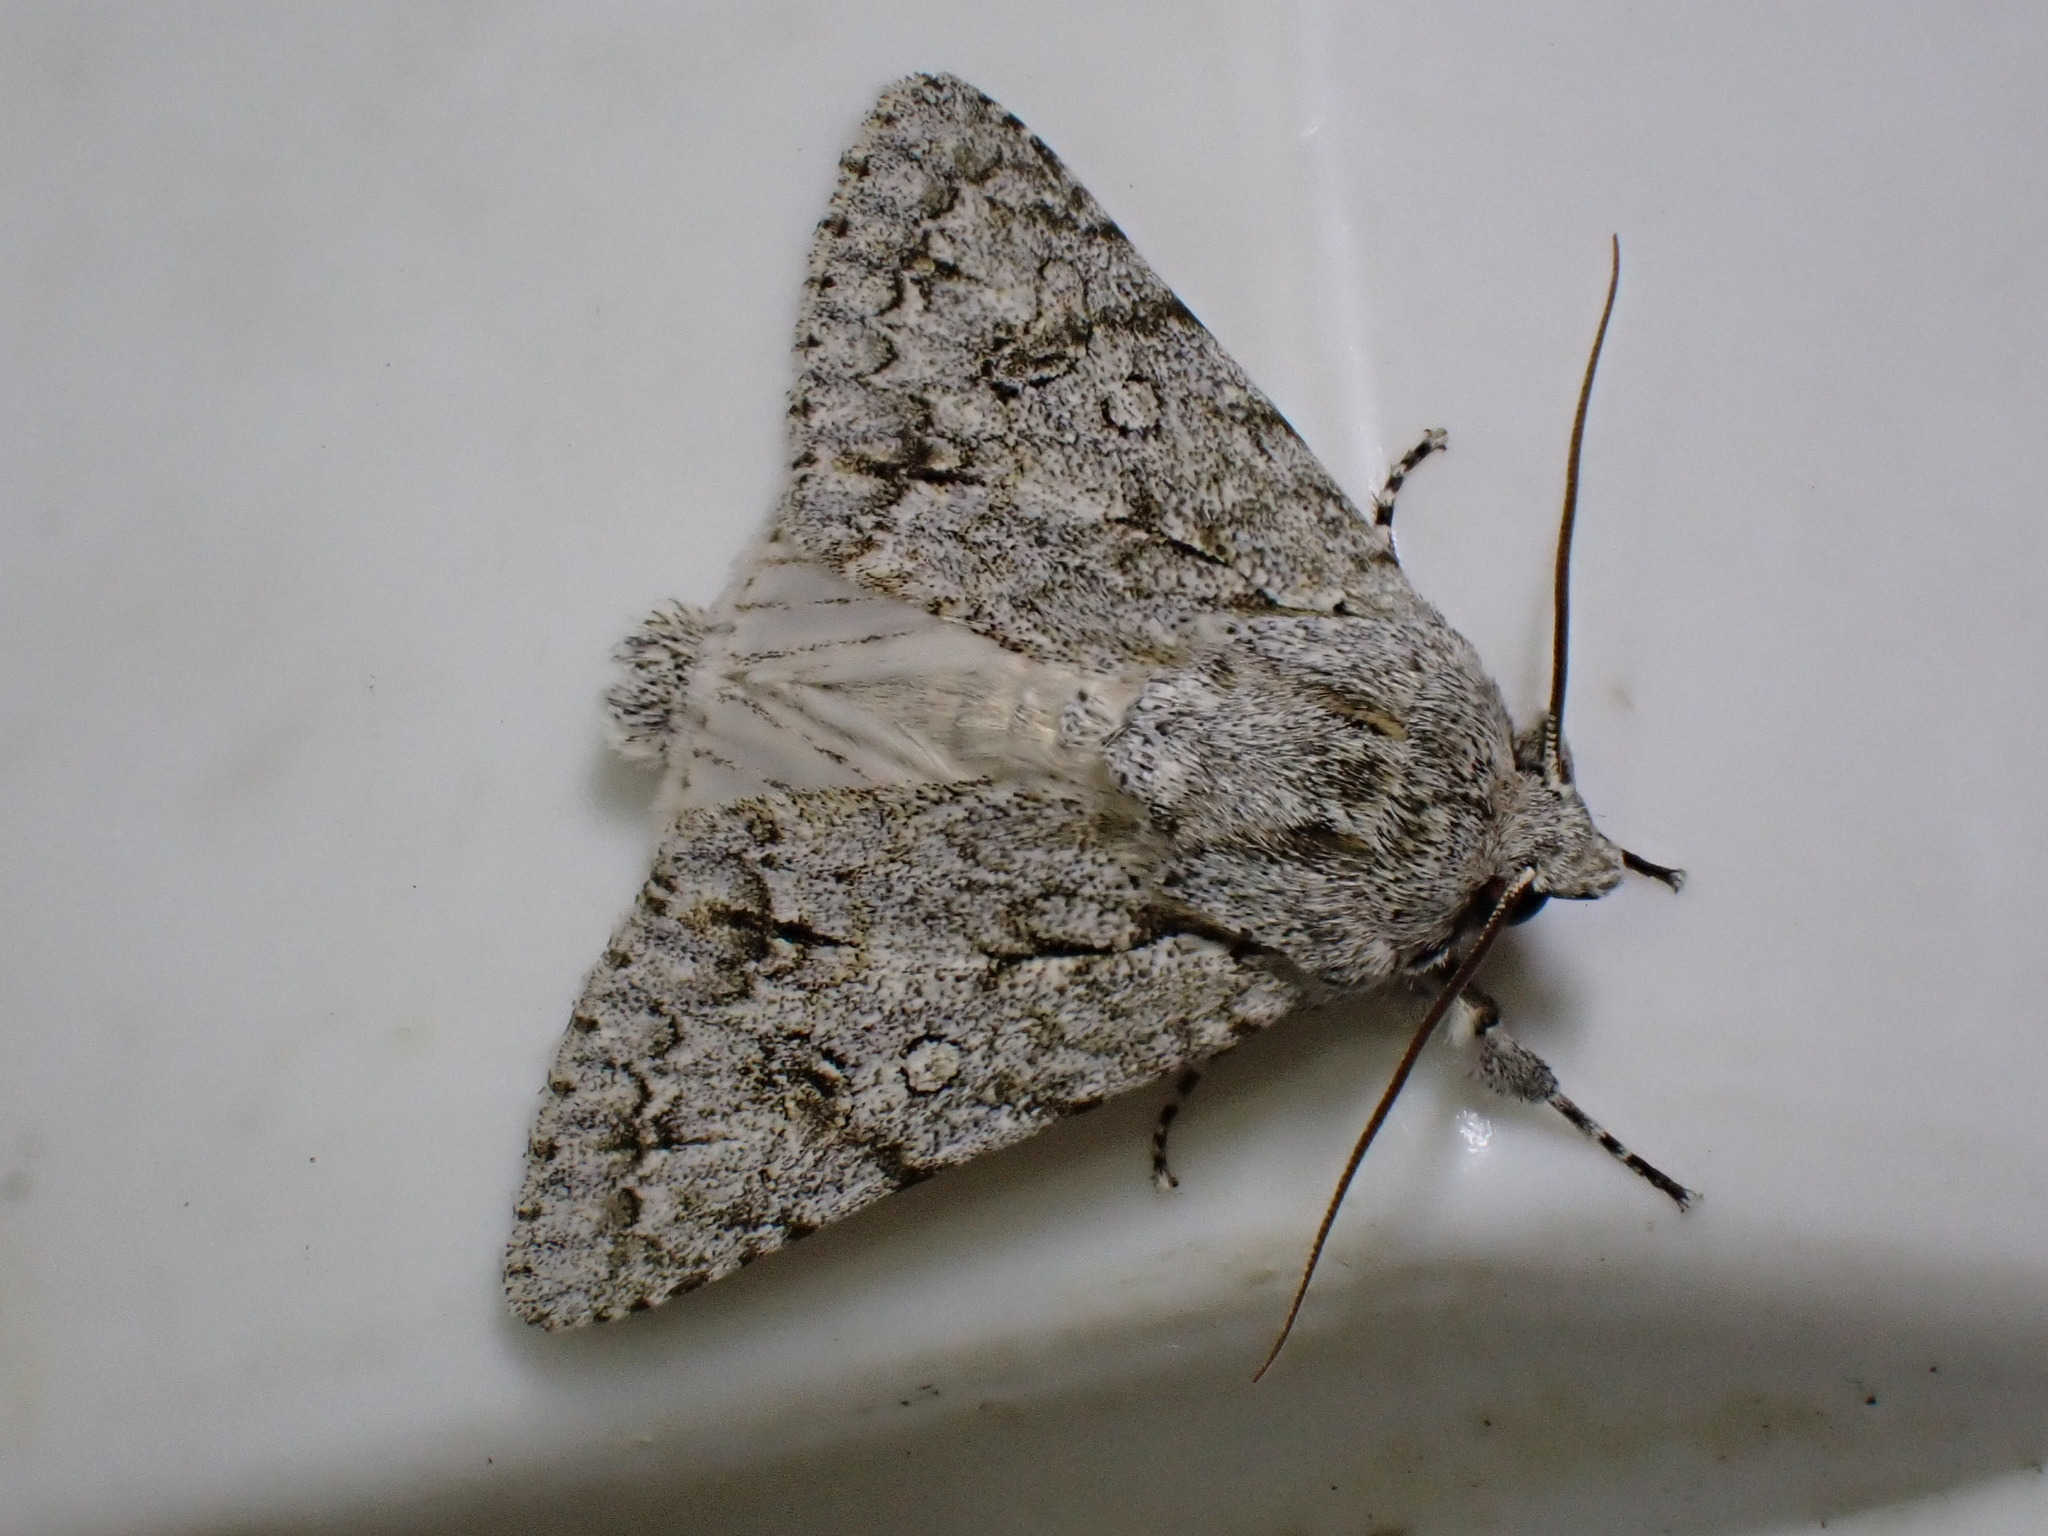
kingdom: Animalia
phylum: Arthropoda
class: Insecta
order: Lepidoptera
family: Noctuidae
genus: Acronicta
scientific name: Acronicta aceris
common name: Sycamore
